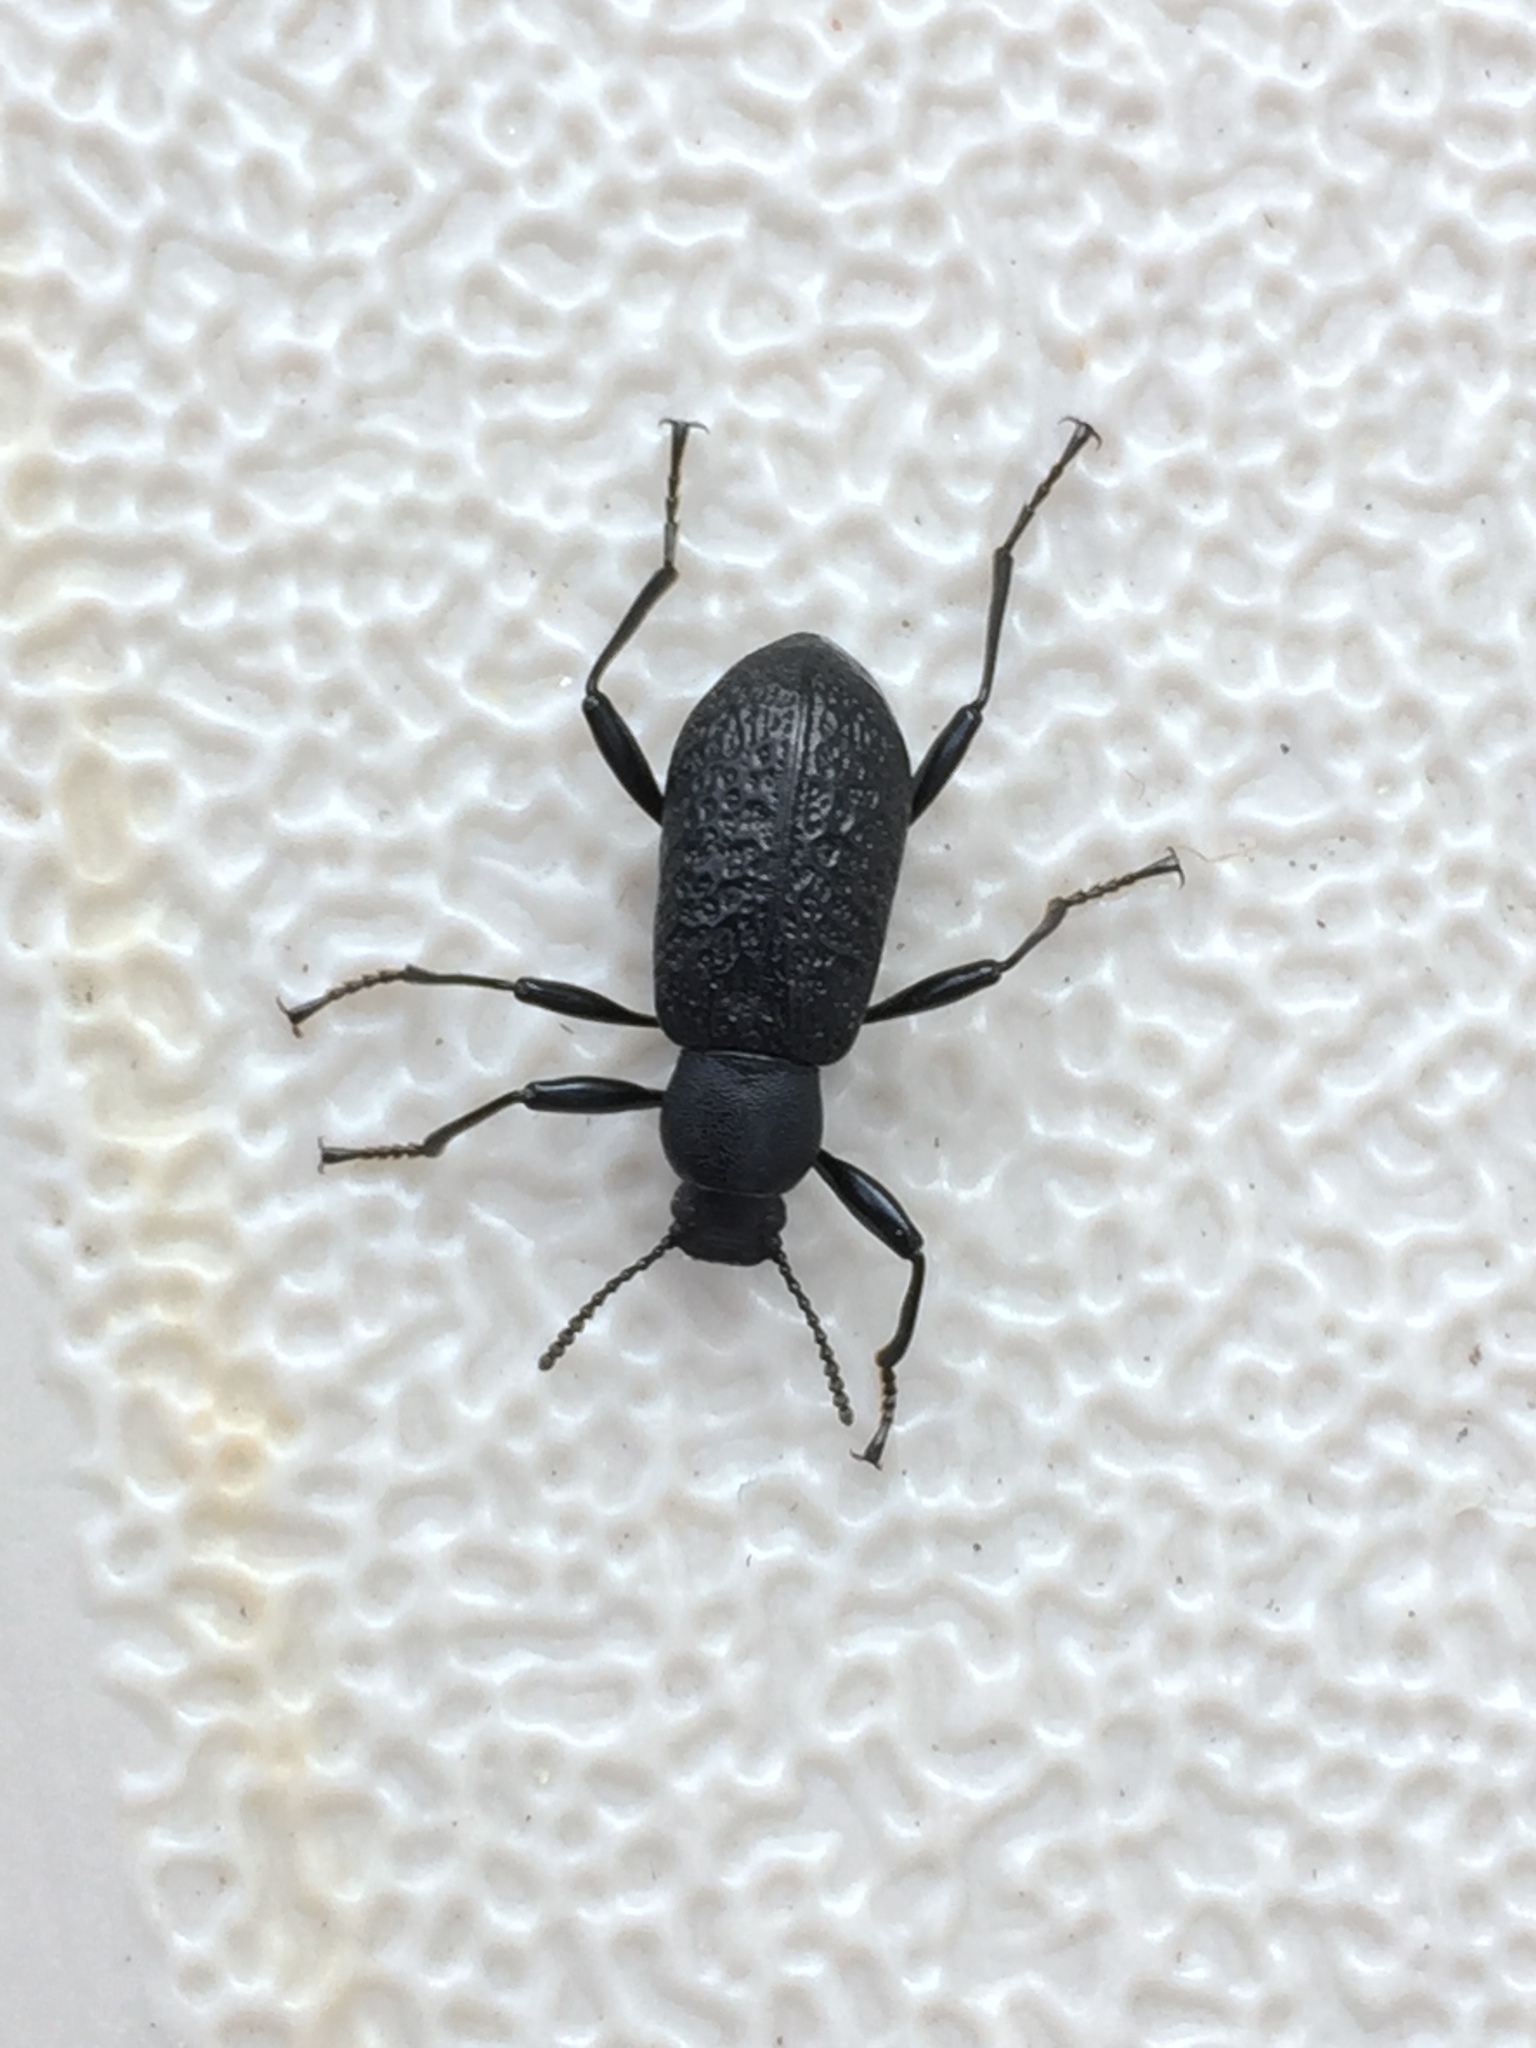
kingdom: Animalia
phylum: Arthropoda
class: Insecta
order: Coleoptera
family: Tenebrionidae
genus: Upis
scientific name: Upis ceramboides
